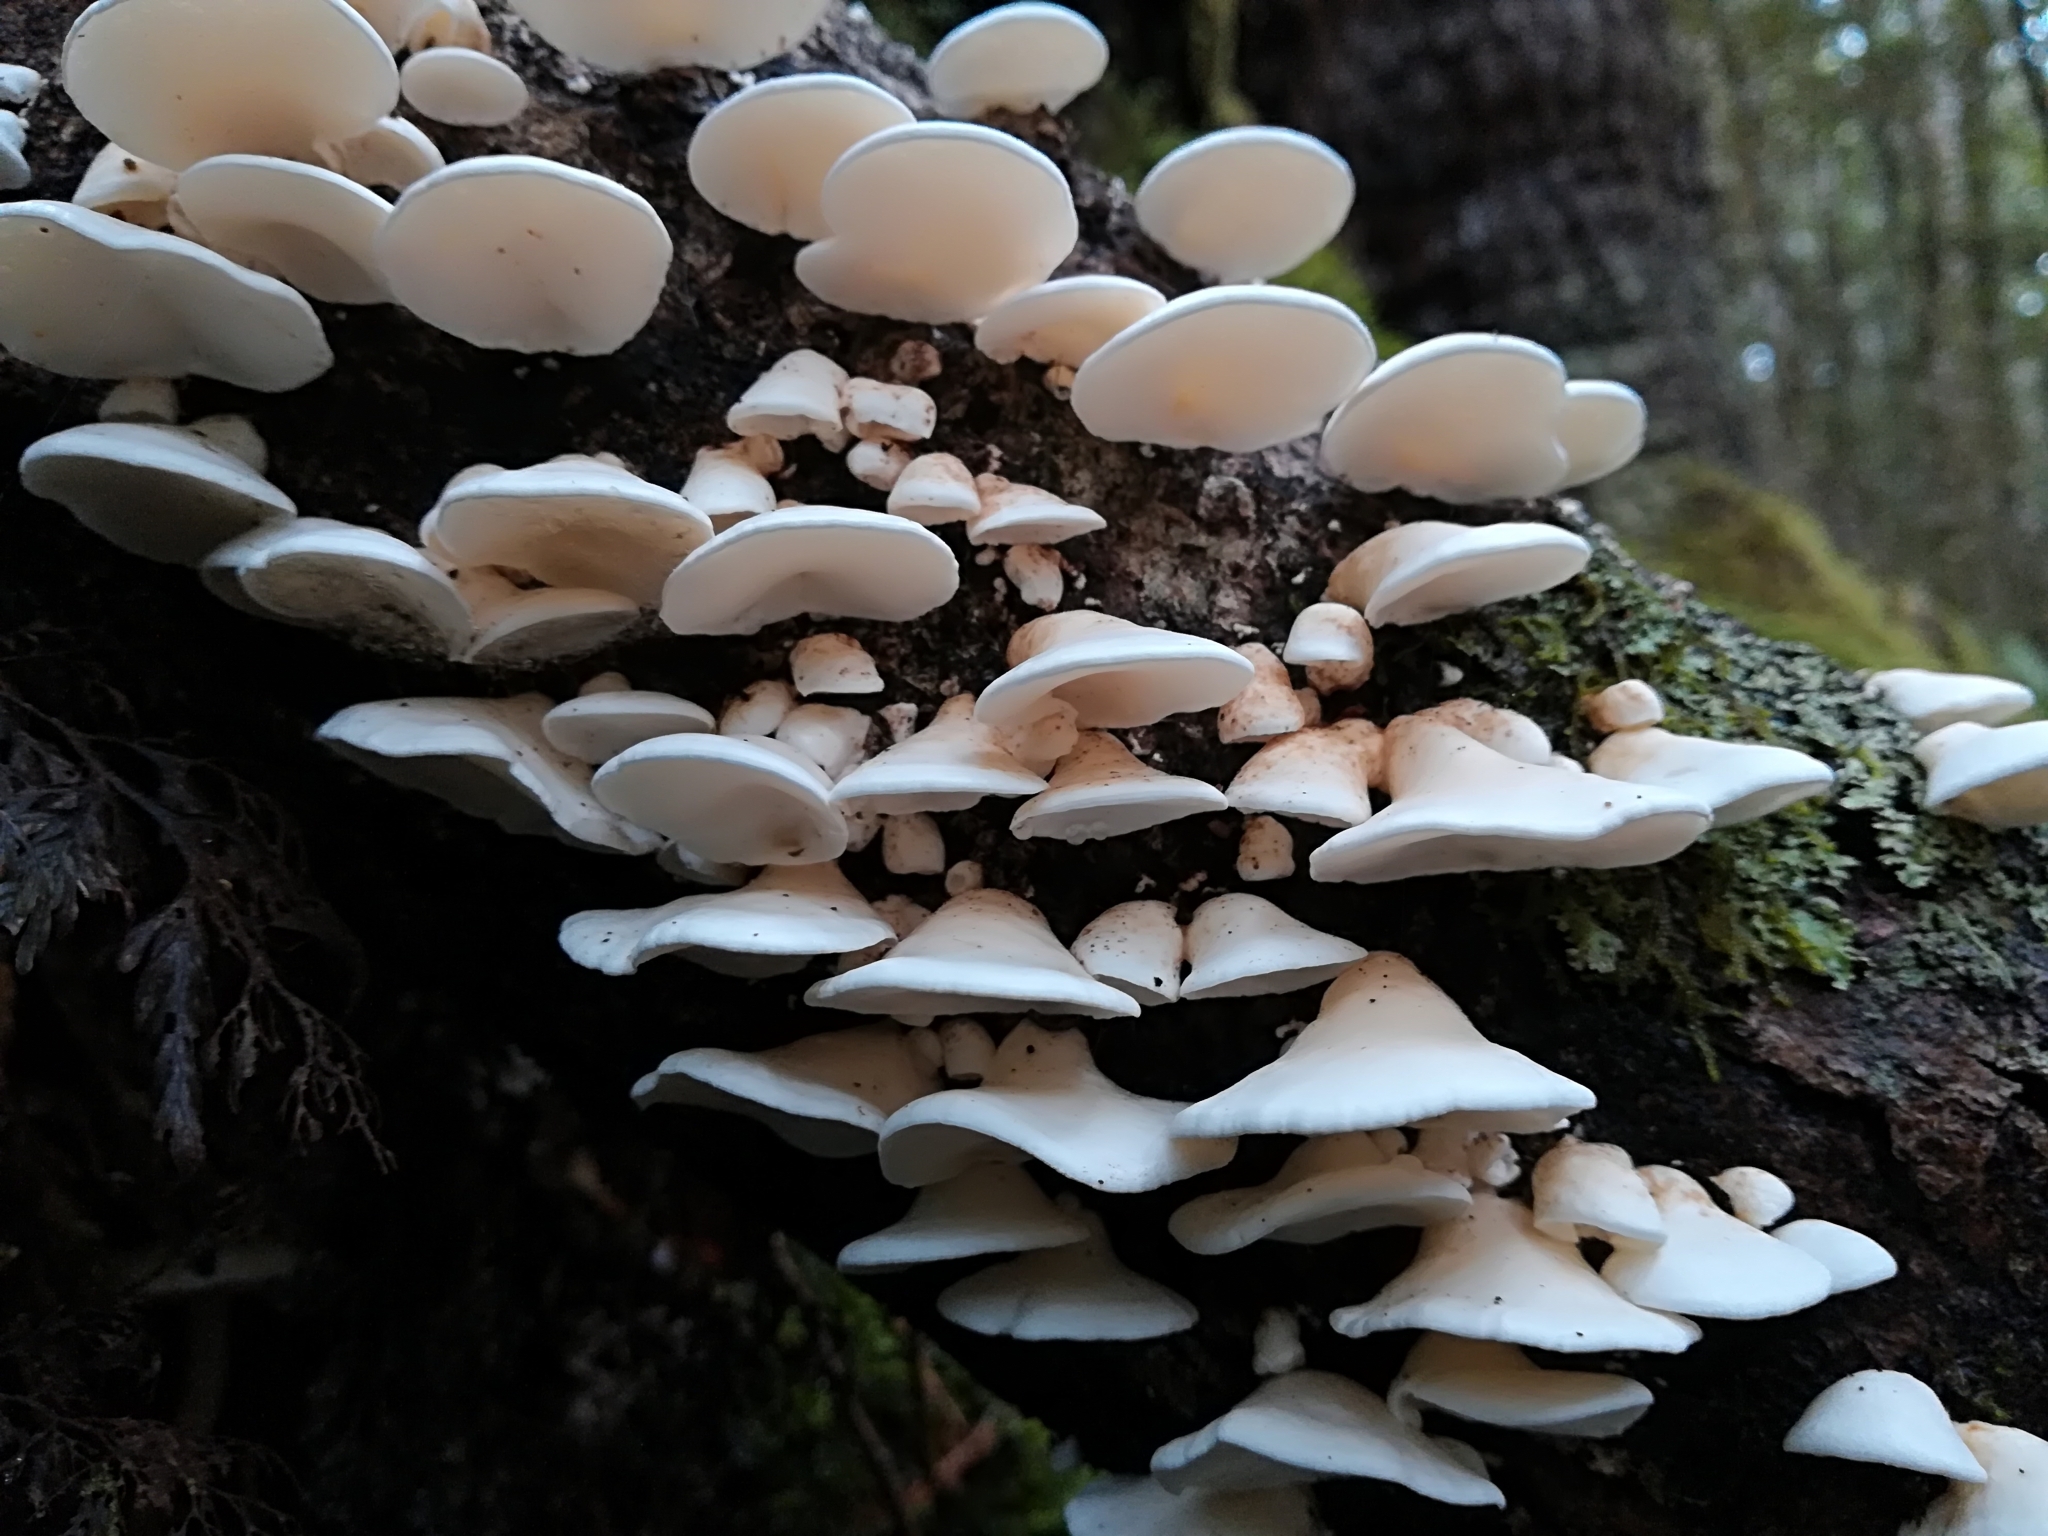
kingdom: Fungi
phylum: Basidiomycota
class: Agaricomycetes
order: Polyporales
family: Irpicaceae
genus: Gloeoporus
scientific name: Gloeoporus phlebophorus
